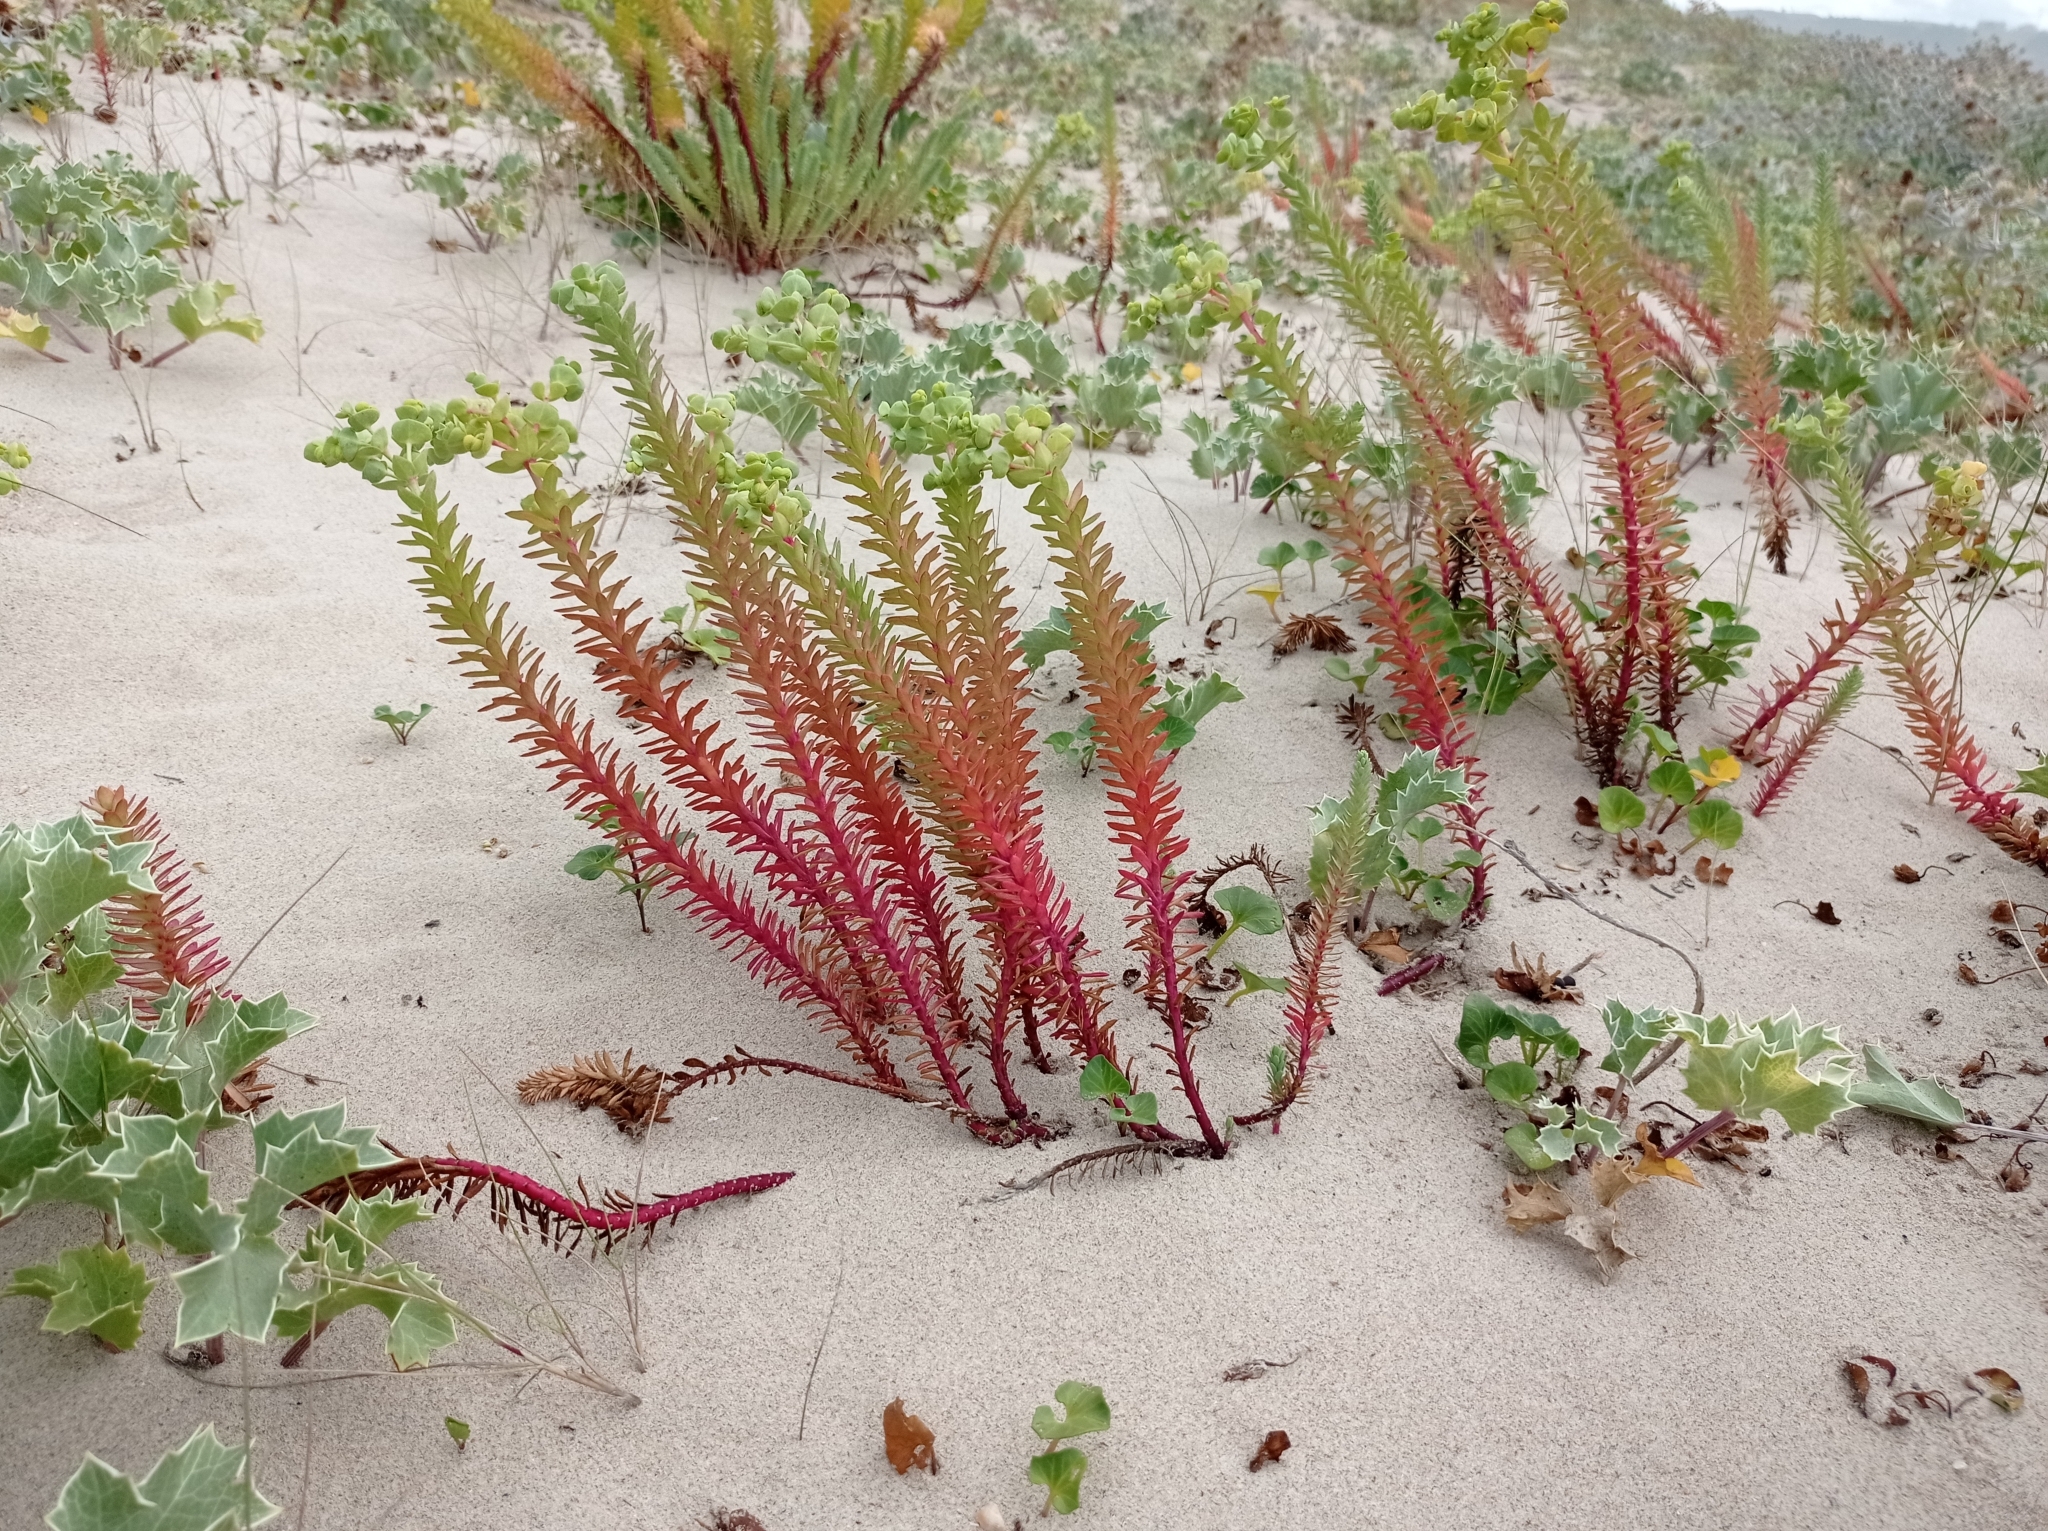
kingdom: Plantae
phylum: Tracheophyta
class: Magnoliopsida
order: Malpighiales
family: Euphorbiaceae
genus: Euphorbia
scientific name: Euphorbia paralias
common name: Sea spurge
